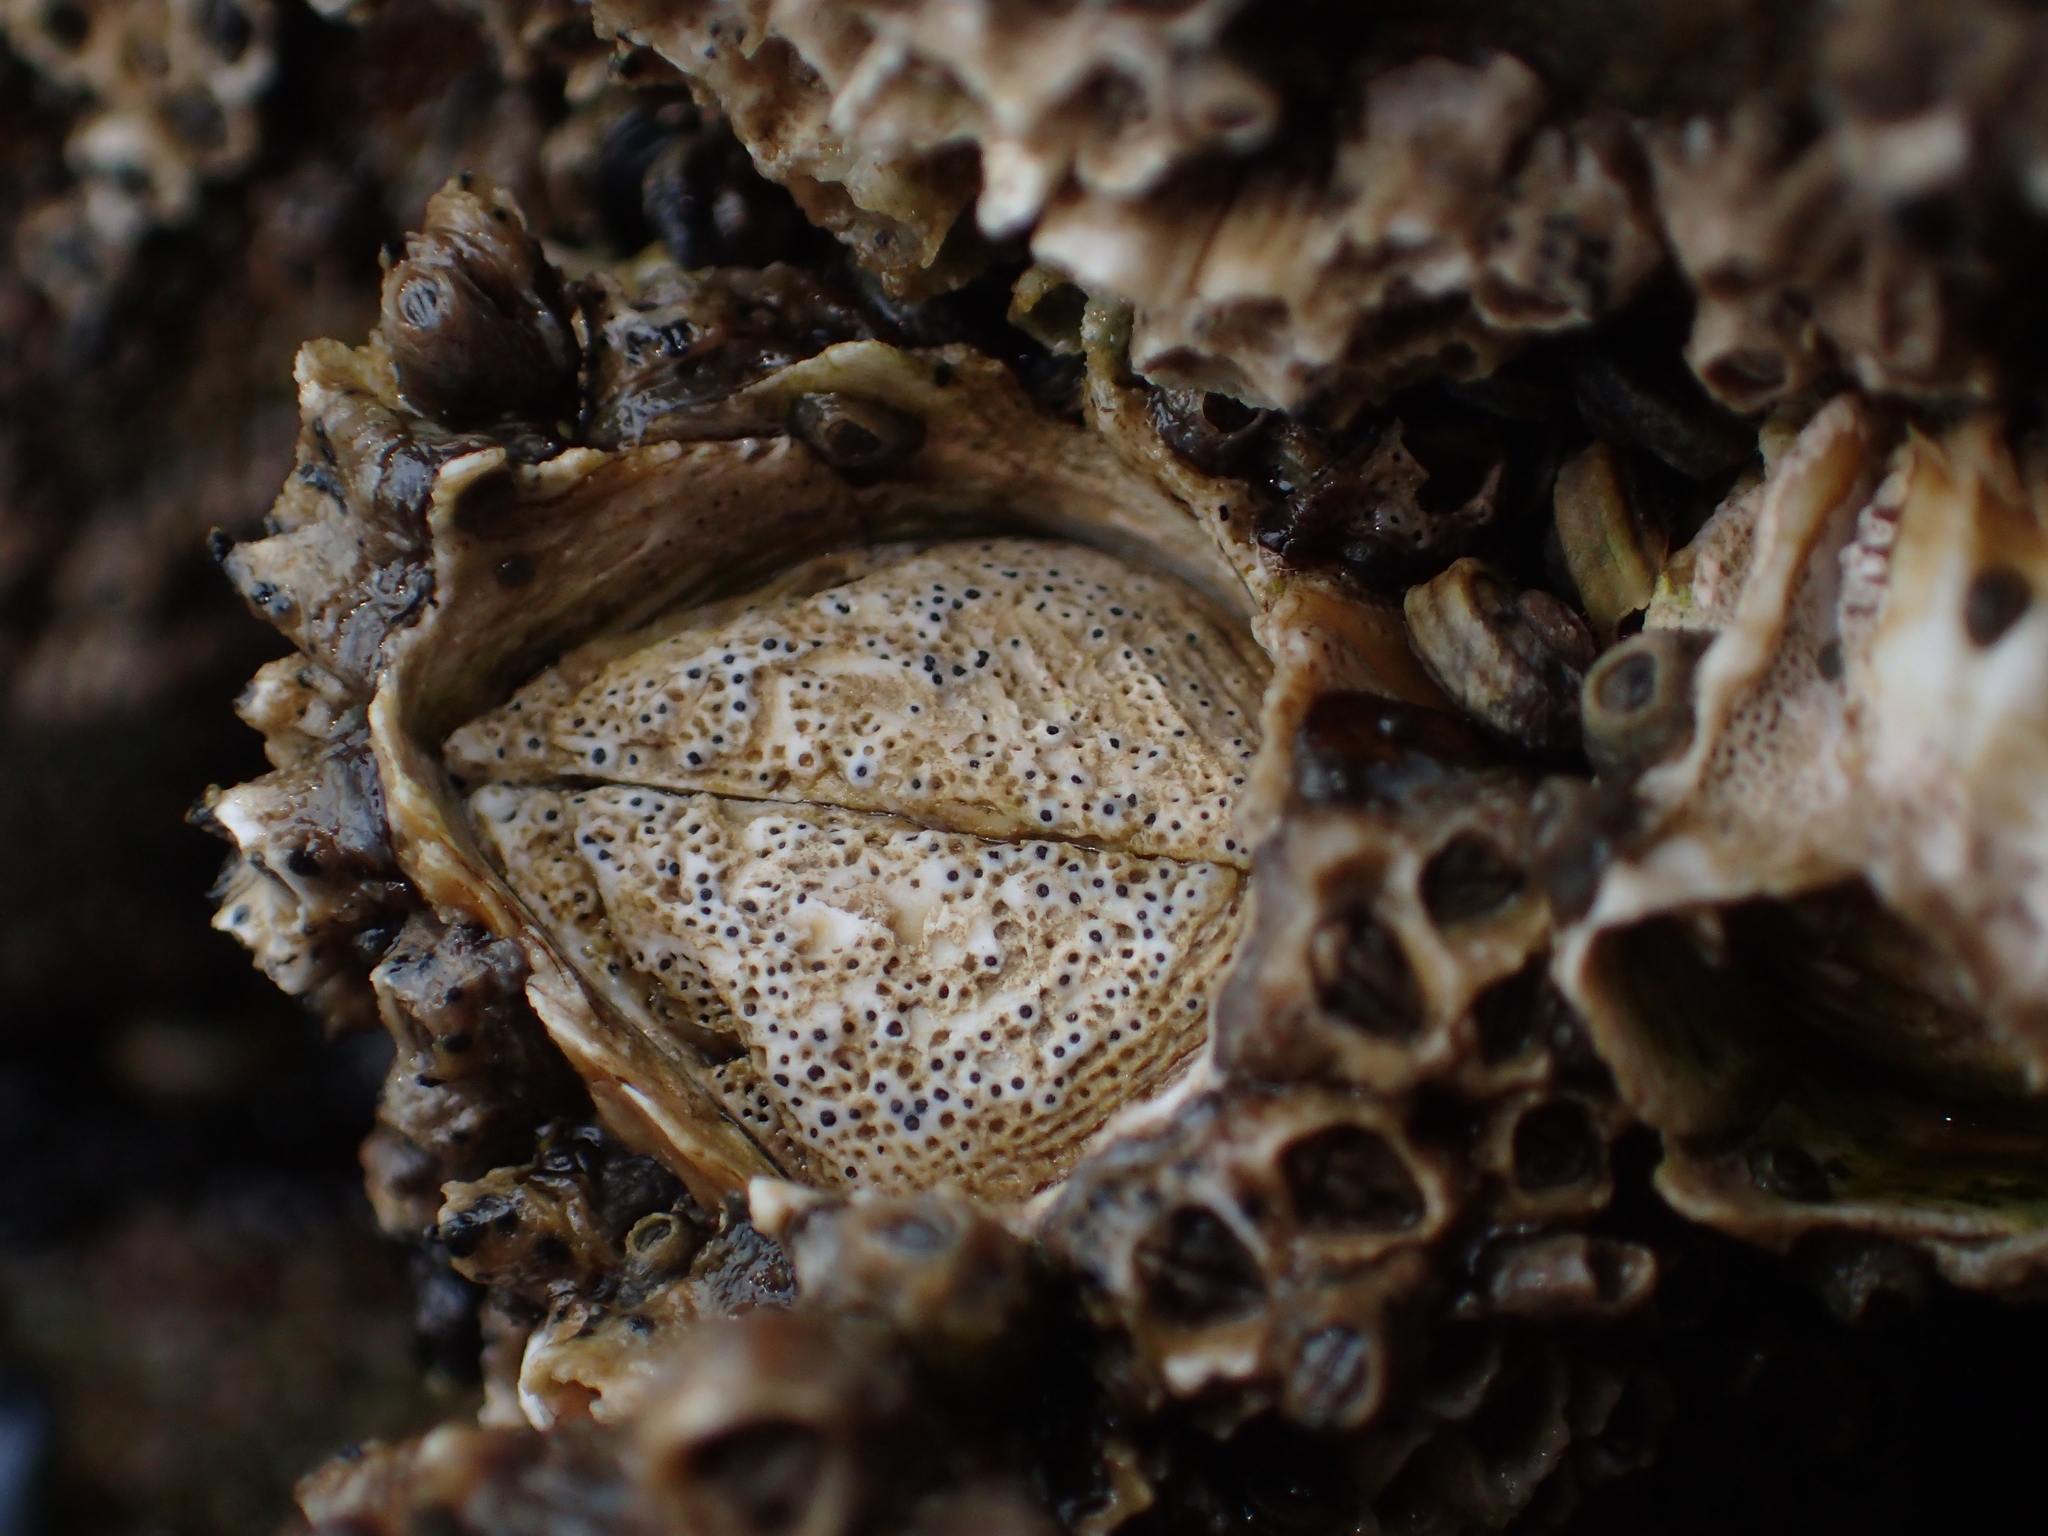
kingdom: Animalia
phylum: Arthropoda
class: Maxillopoda
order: Sessilia
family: Tetraclitidae
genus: Epopella
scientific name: Epopella plicata
